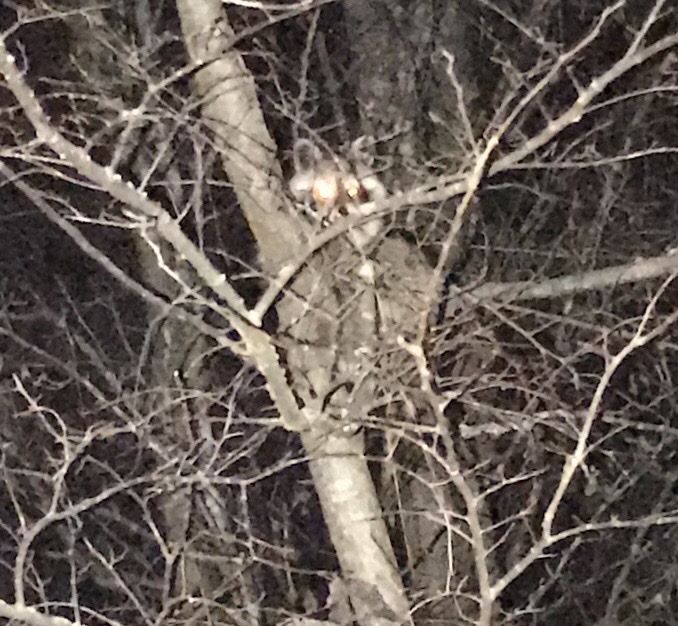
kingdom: Animalia
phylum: Chordata
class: Mammalia
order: Carnivora
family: Procyonidae
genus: Procyon
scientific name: Procyon lotor
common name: Raccoon
